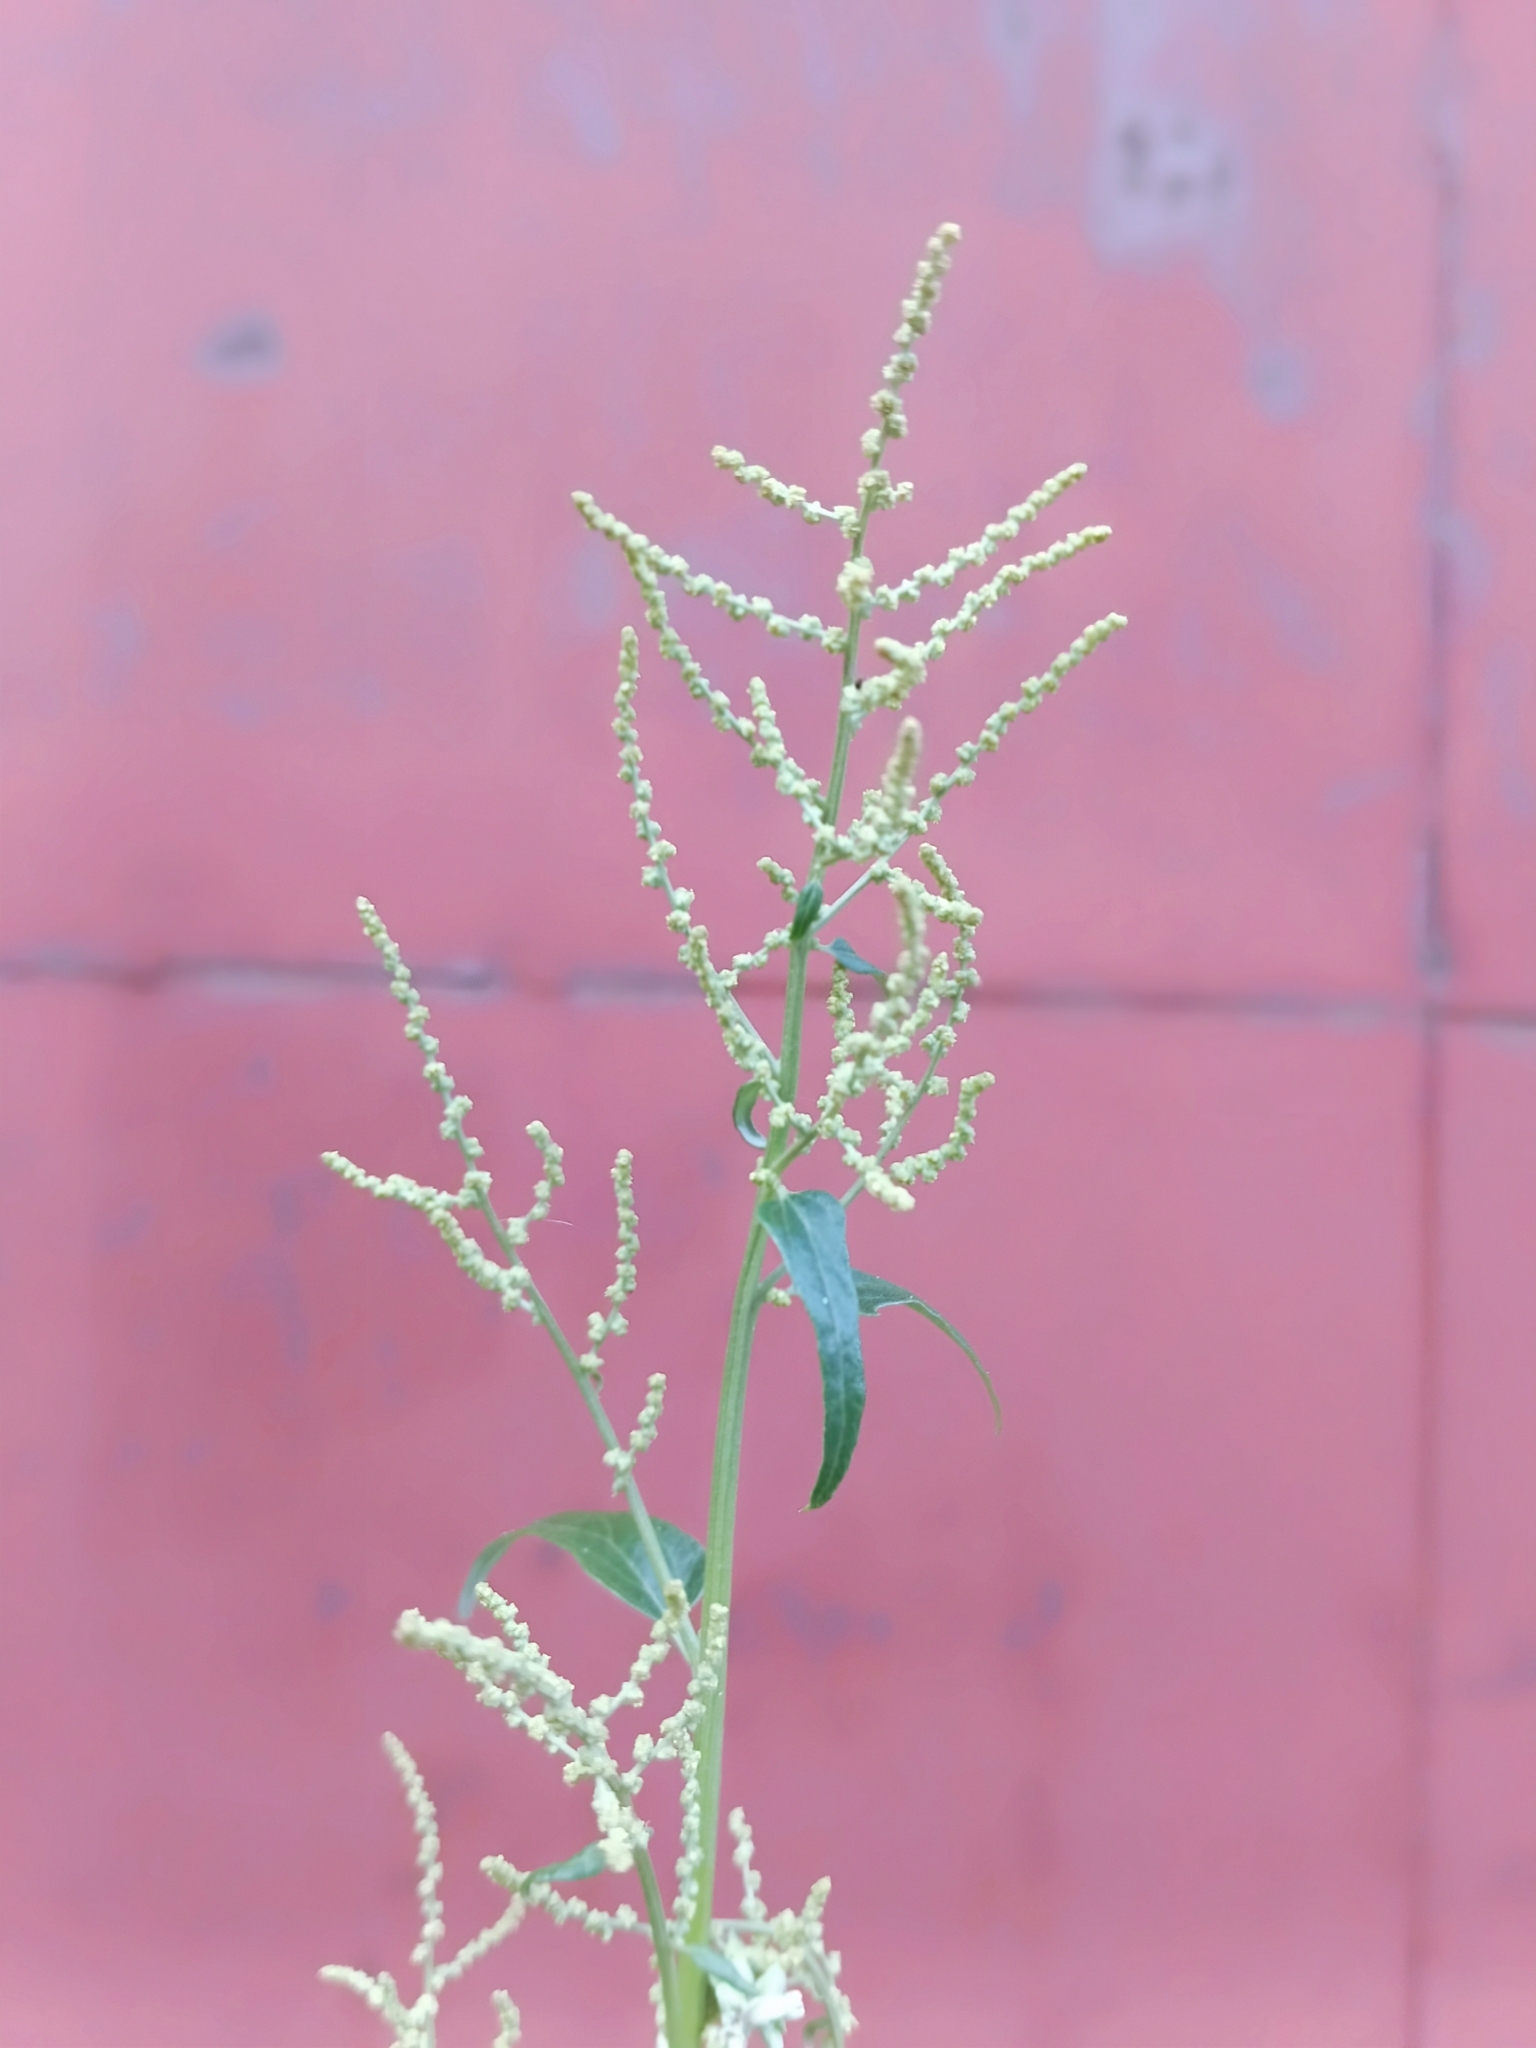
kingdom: Plantae
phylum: Tracheophyta
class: Magnoliopsida
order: Caryophyllales
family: Amaranthaceae
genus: Atriplex
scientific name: Atriplex sagittata
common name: Purple orache
